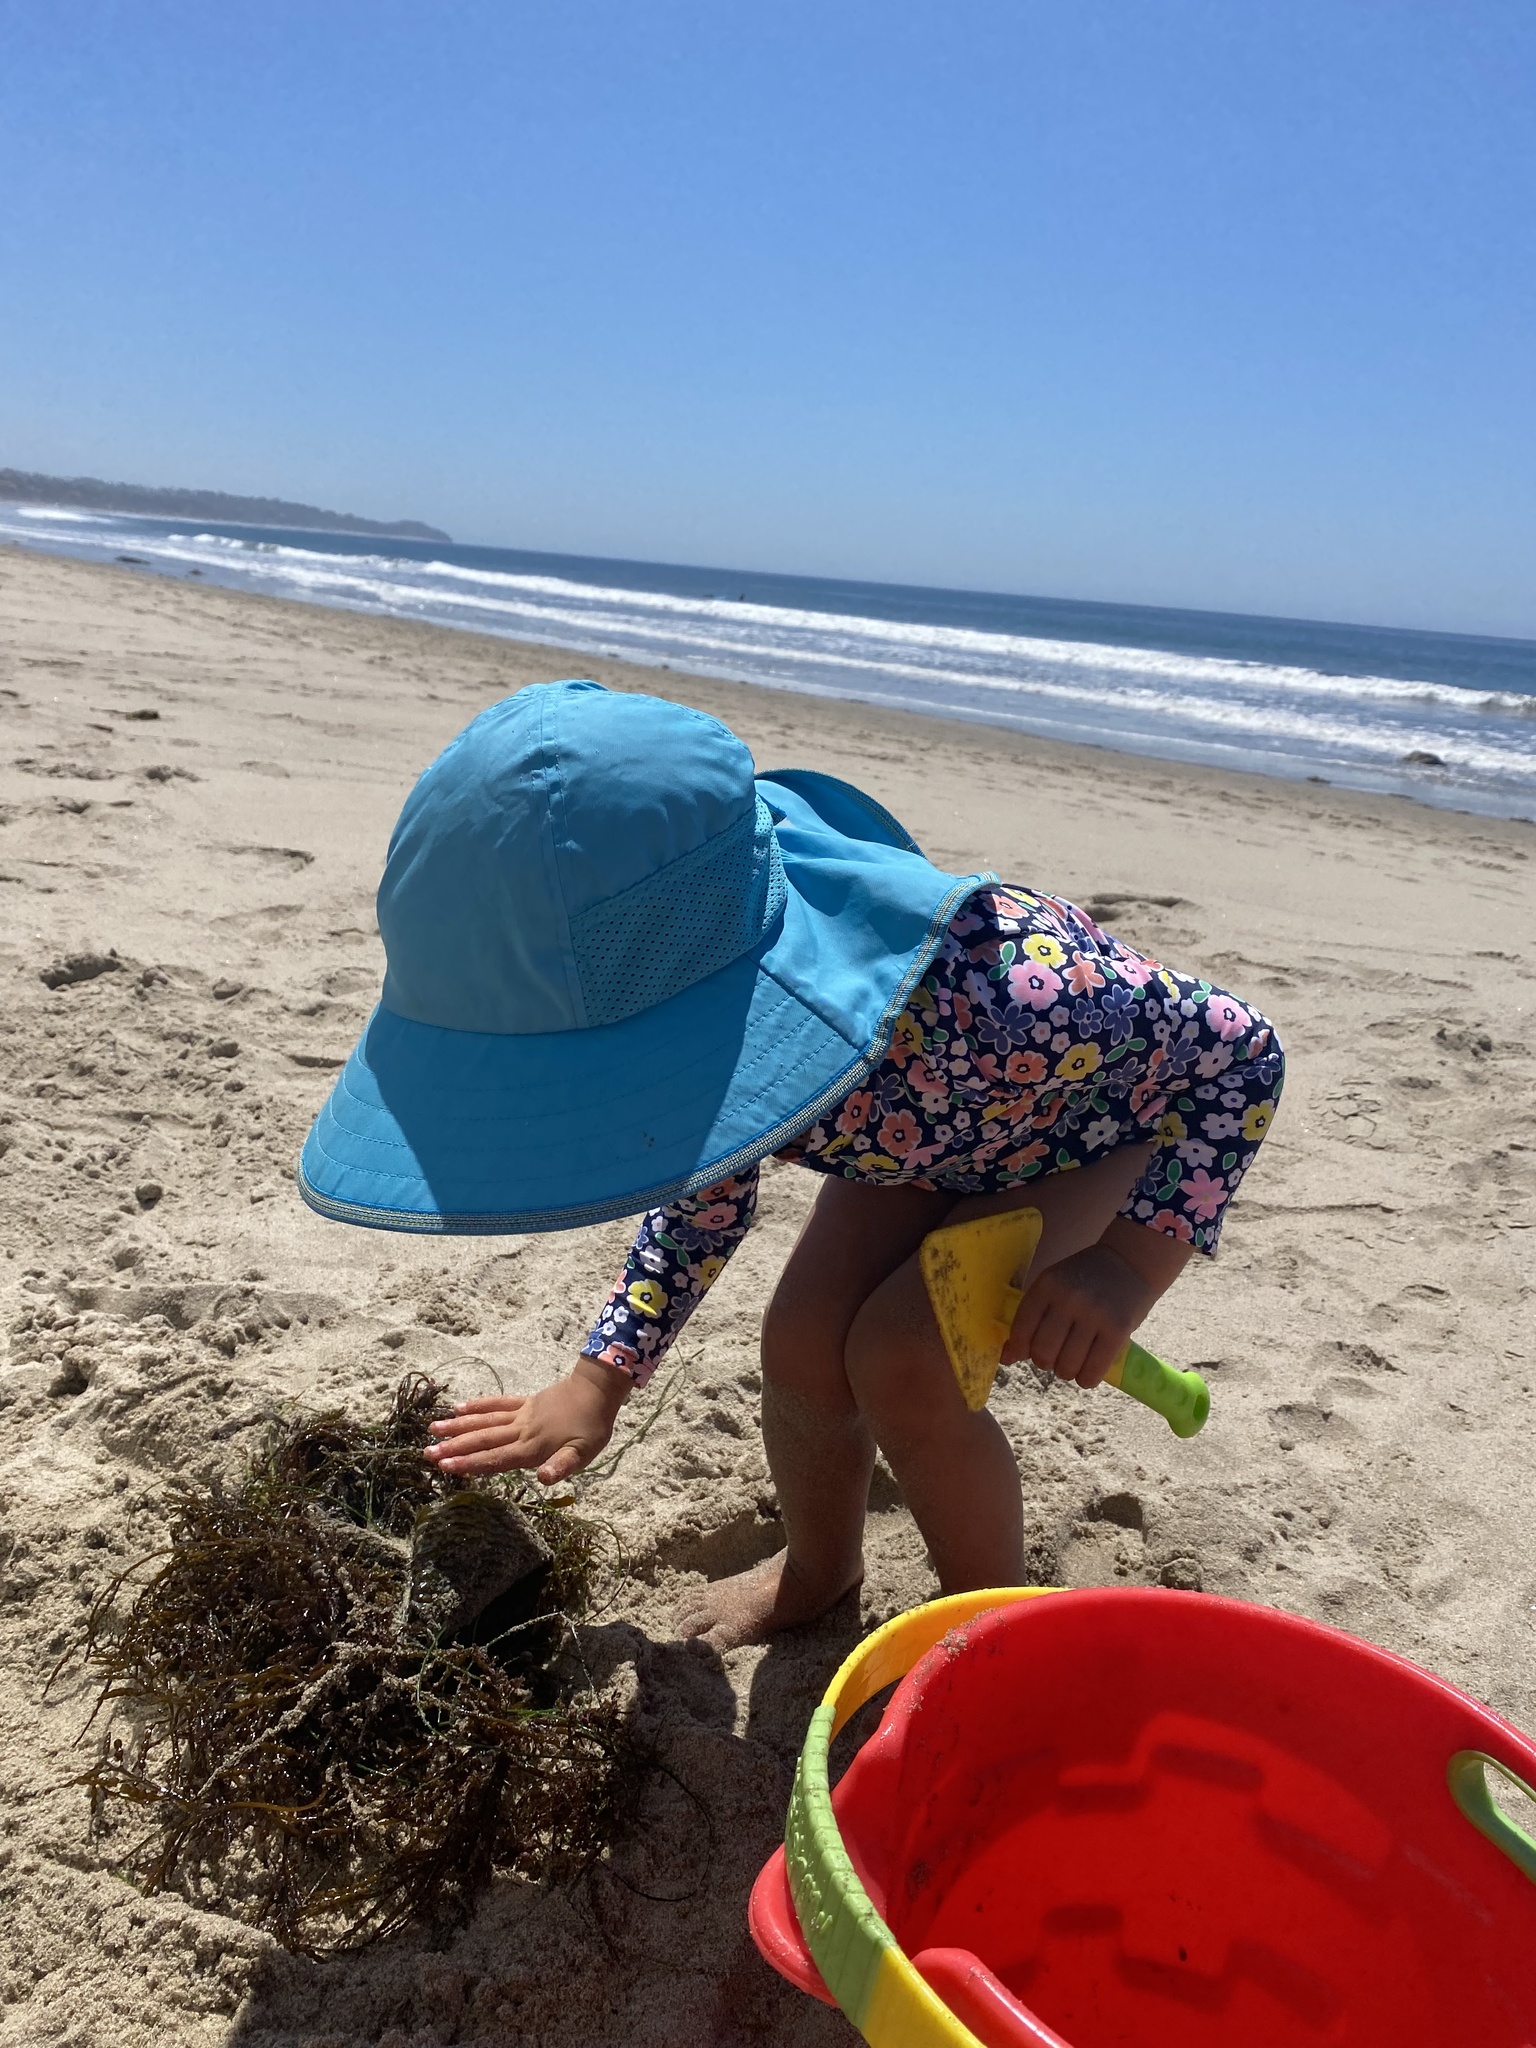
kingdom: Chromista
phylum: Ochrophyta
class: Phaeophyceae
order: Fucales
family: Sargassaceae
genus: Stephanocystis
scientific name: Stephanocystis
